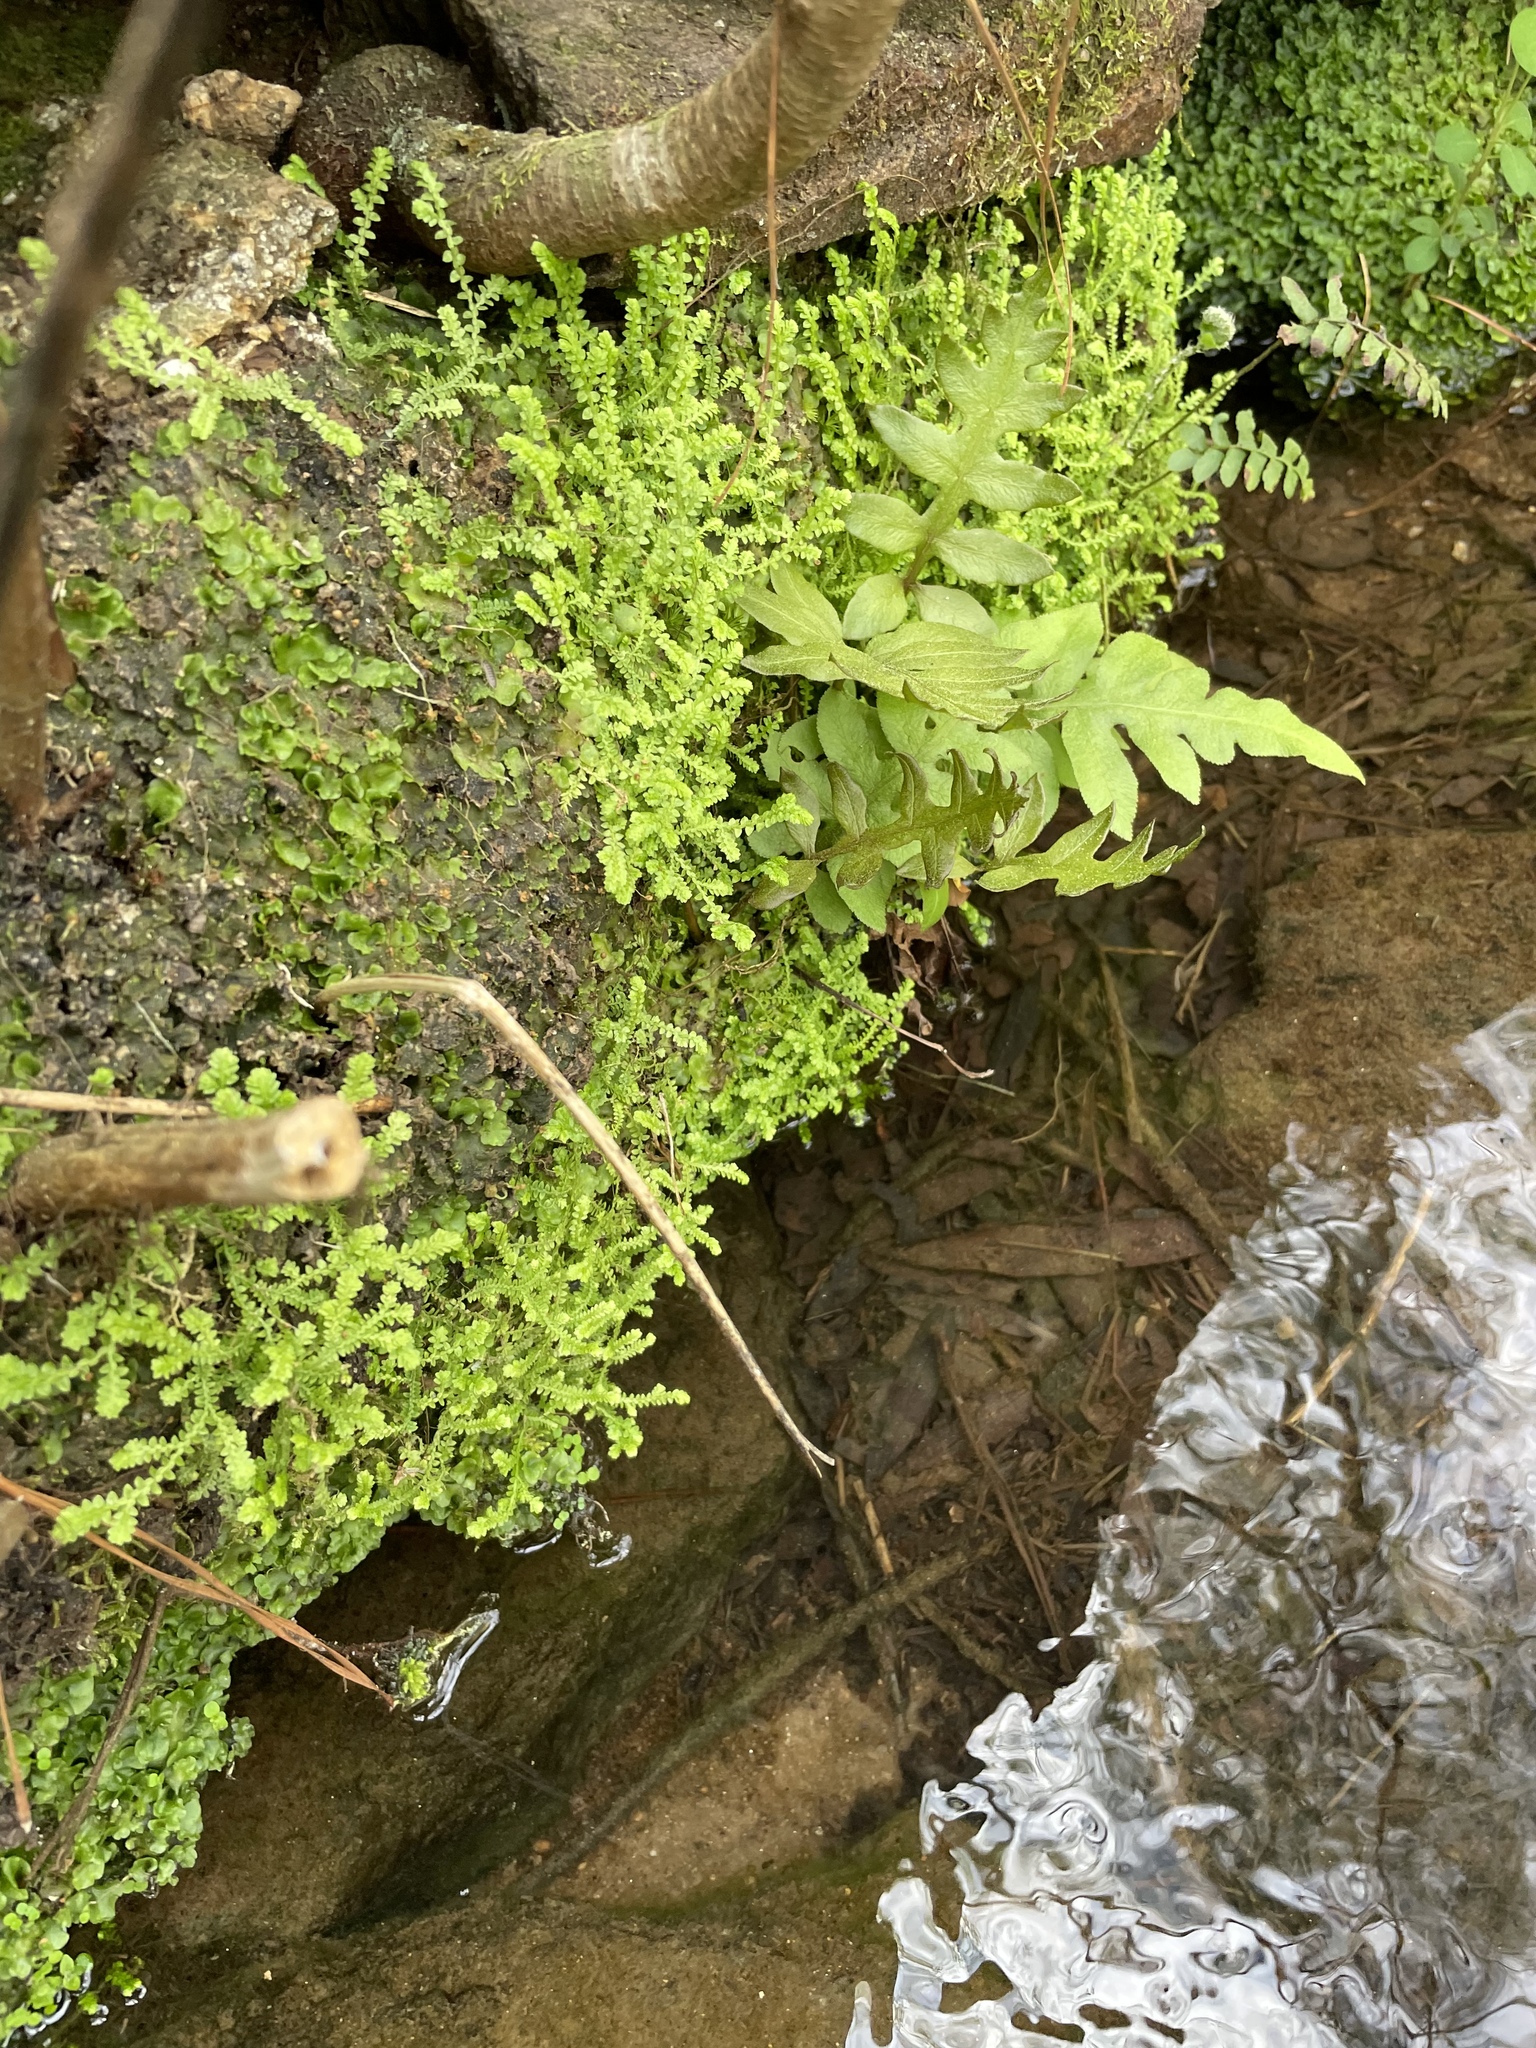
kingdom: Plantae
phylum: Tracheophyta
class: Lycopodiopsida
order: Selaginellales
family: Selaginellaceae
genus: Selaginella
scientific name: Selaginella apoda
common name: Creeping spikemoss
